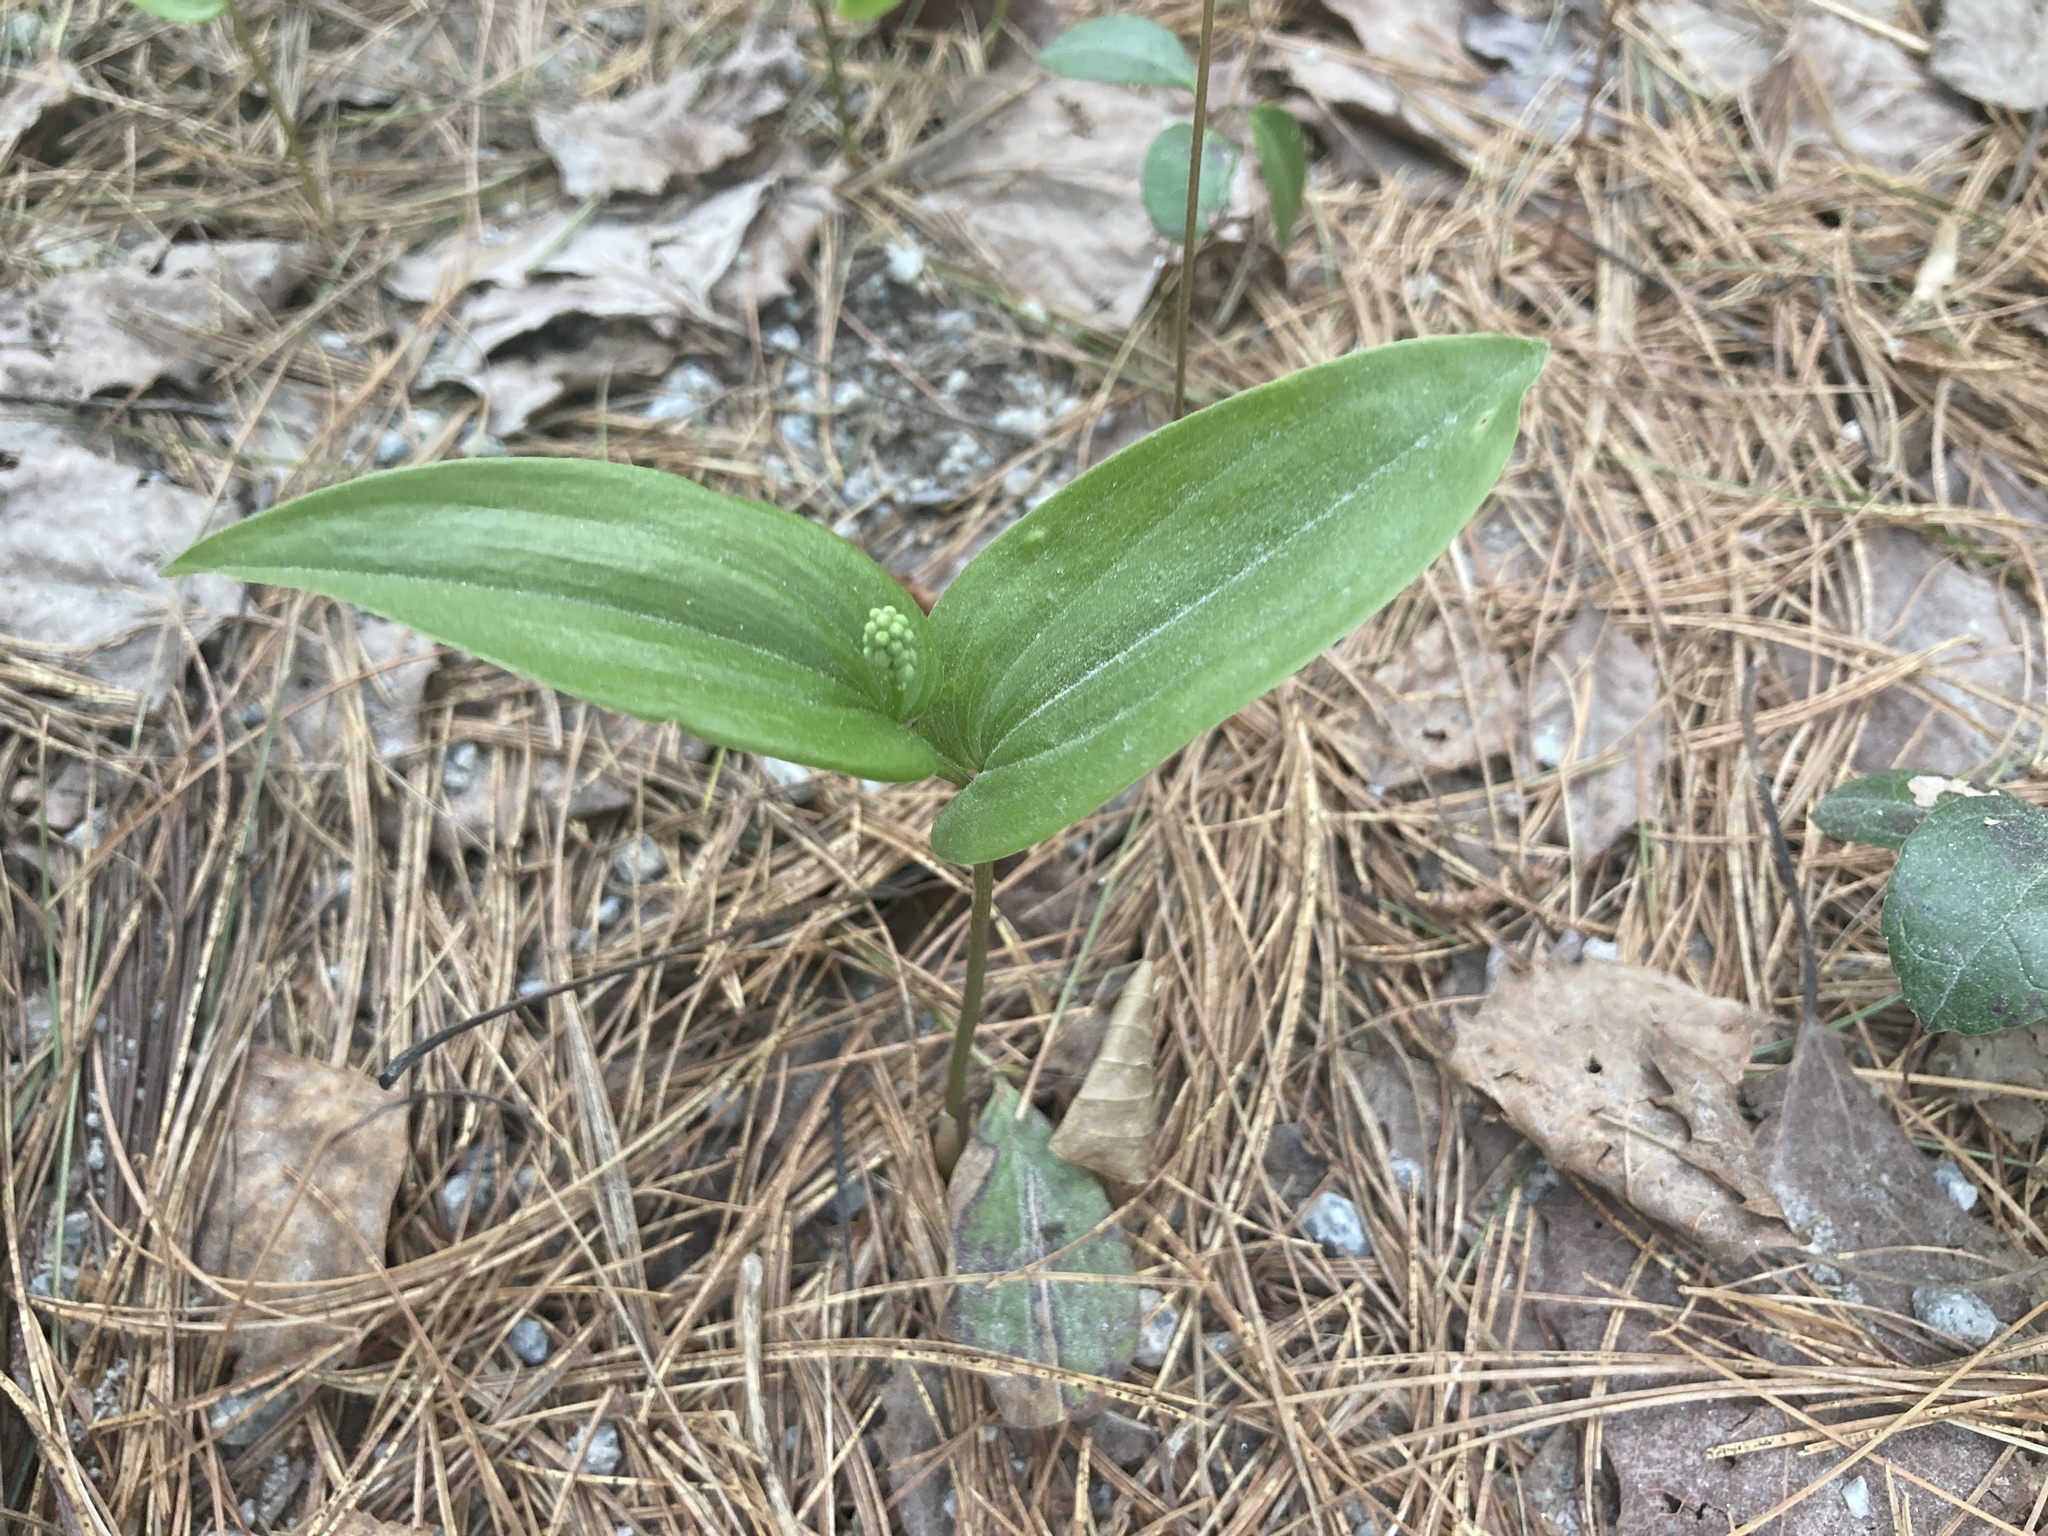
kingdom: Plantae
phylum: Tracheophyta
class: Liliopsida
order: Asparagales
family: Asparagaceae
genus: Maianthemum
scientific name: Maianthemum canadense
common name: False lily-of-the-valley
